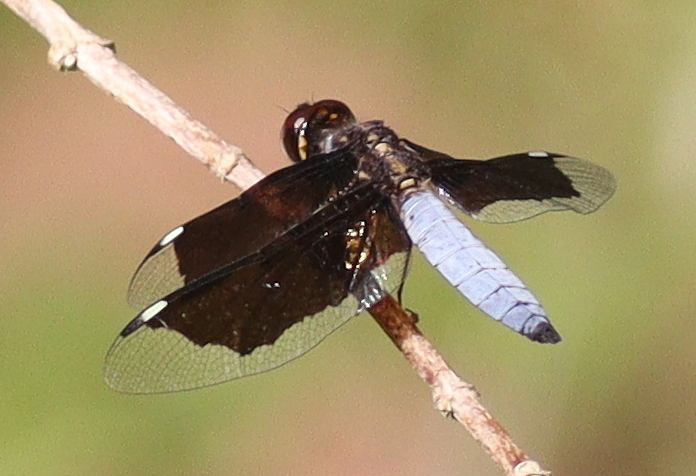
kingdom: Animalia
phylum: Arthropoda
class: Insecta
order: Odonata
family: Libellulidae
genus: Palpopleura
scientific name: Palpopleura lucia
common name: Lucia widow
